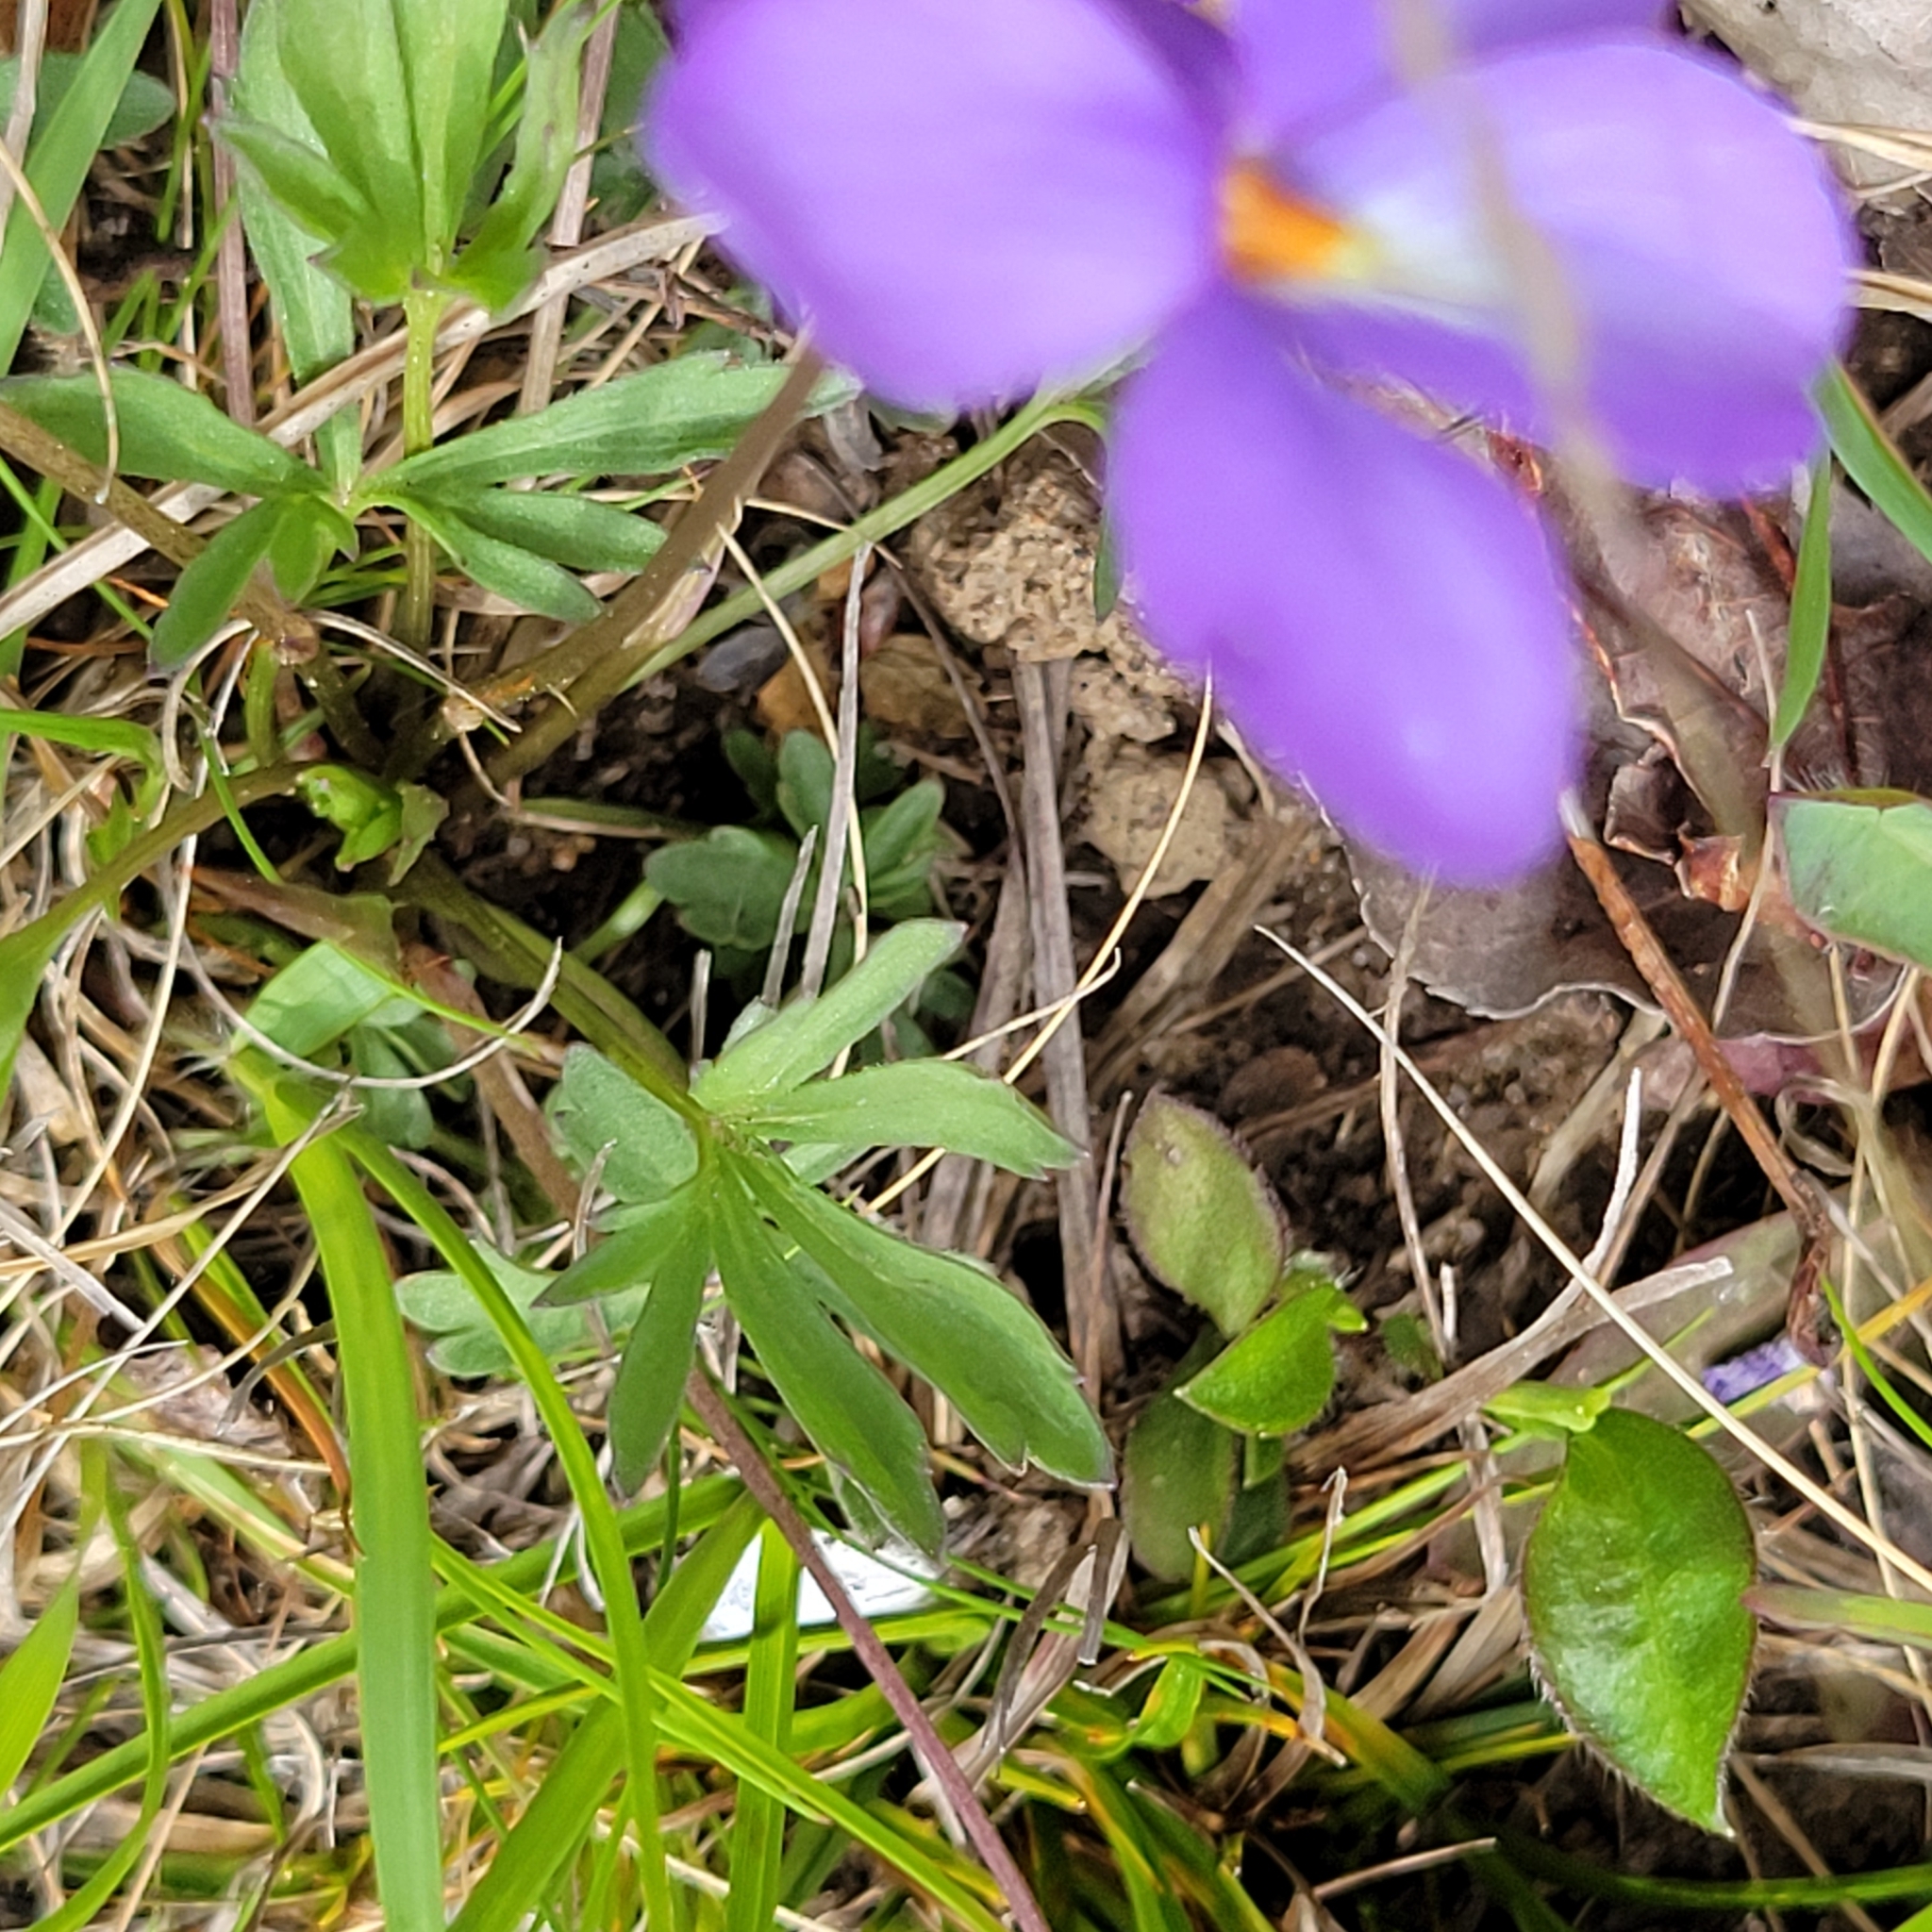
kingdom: Plantae
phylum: Tracheophyta
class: Magnoliopsida
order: Malpighiales
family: Violaceae
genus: Viola
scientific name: Viola pedata
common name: Pansy violet
